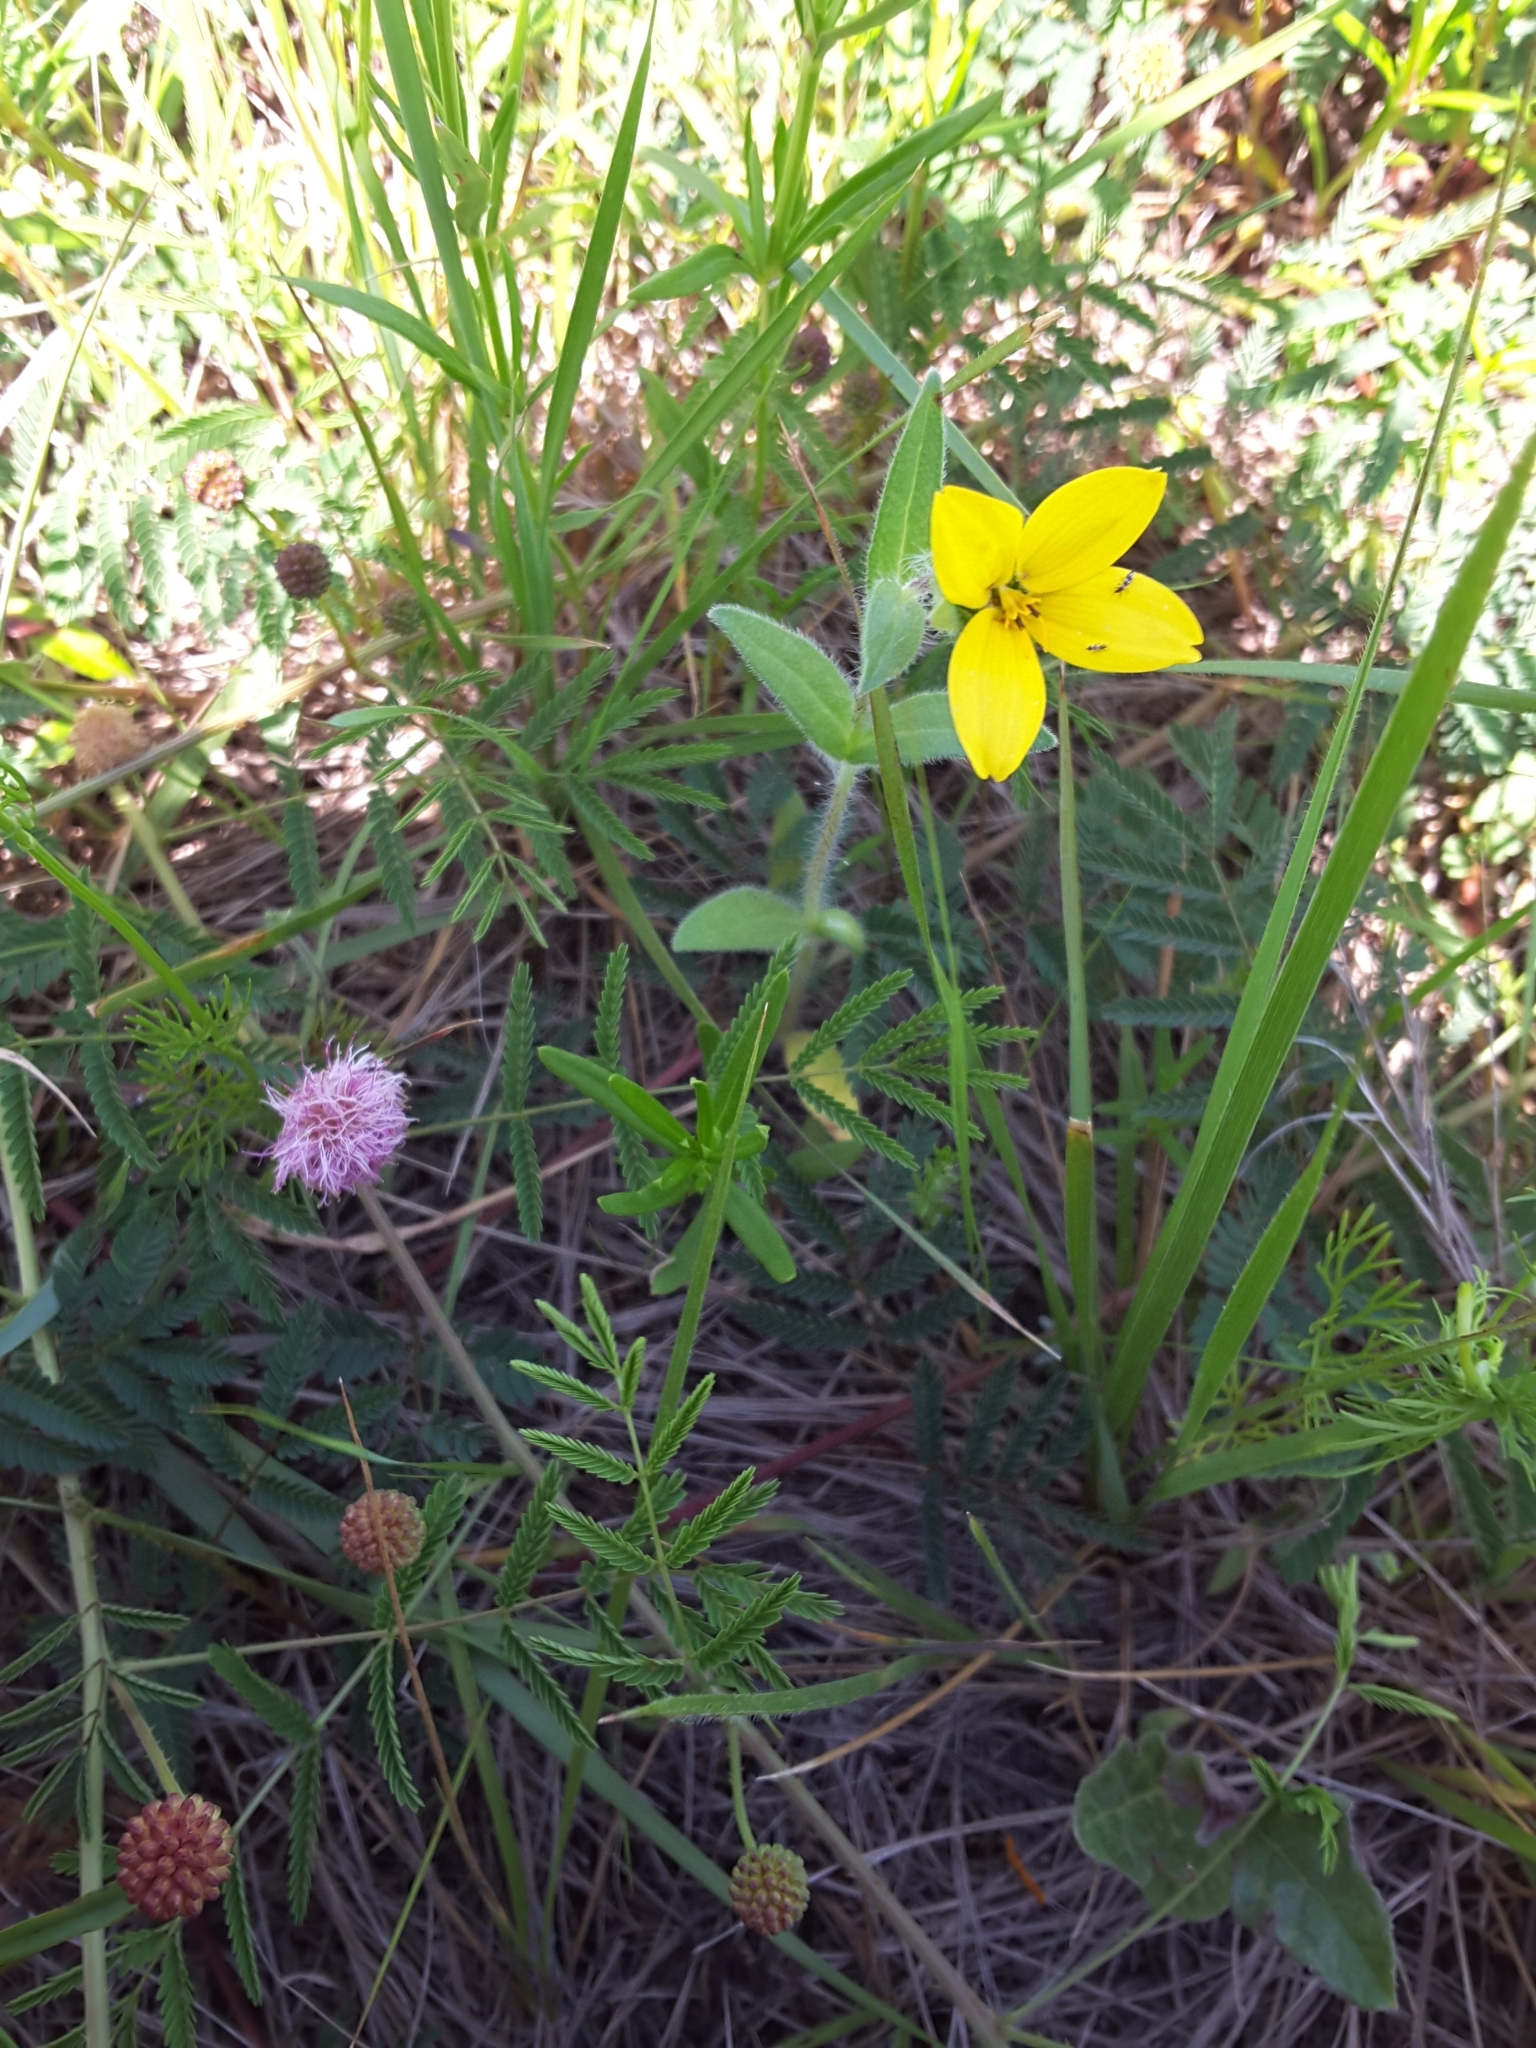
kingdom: Plantae
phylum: Tracheophyta
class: Magnoliopsida
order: Asterales
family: Asteraceae
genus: Lindheimera
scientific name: Lindheimera texana
